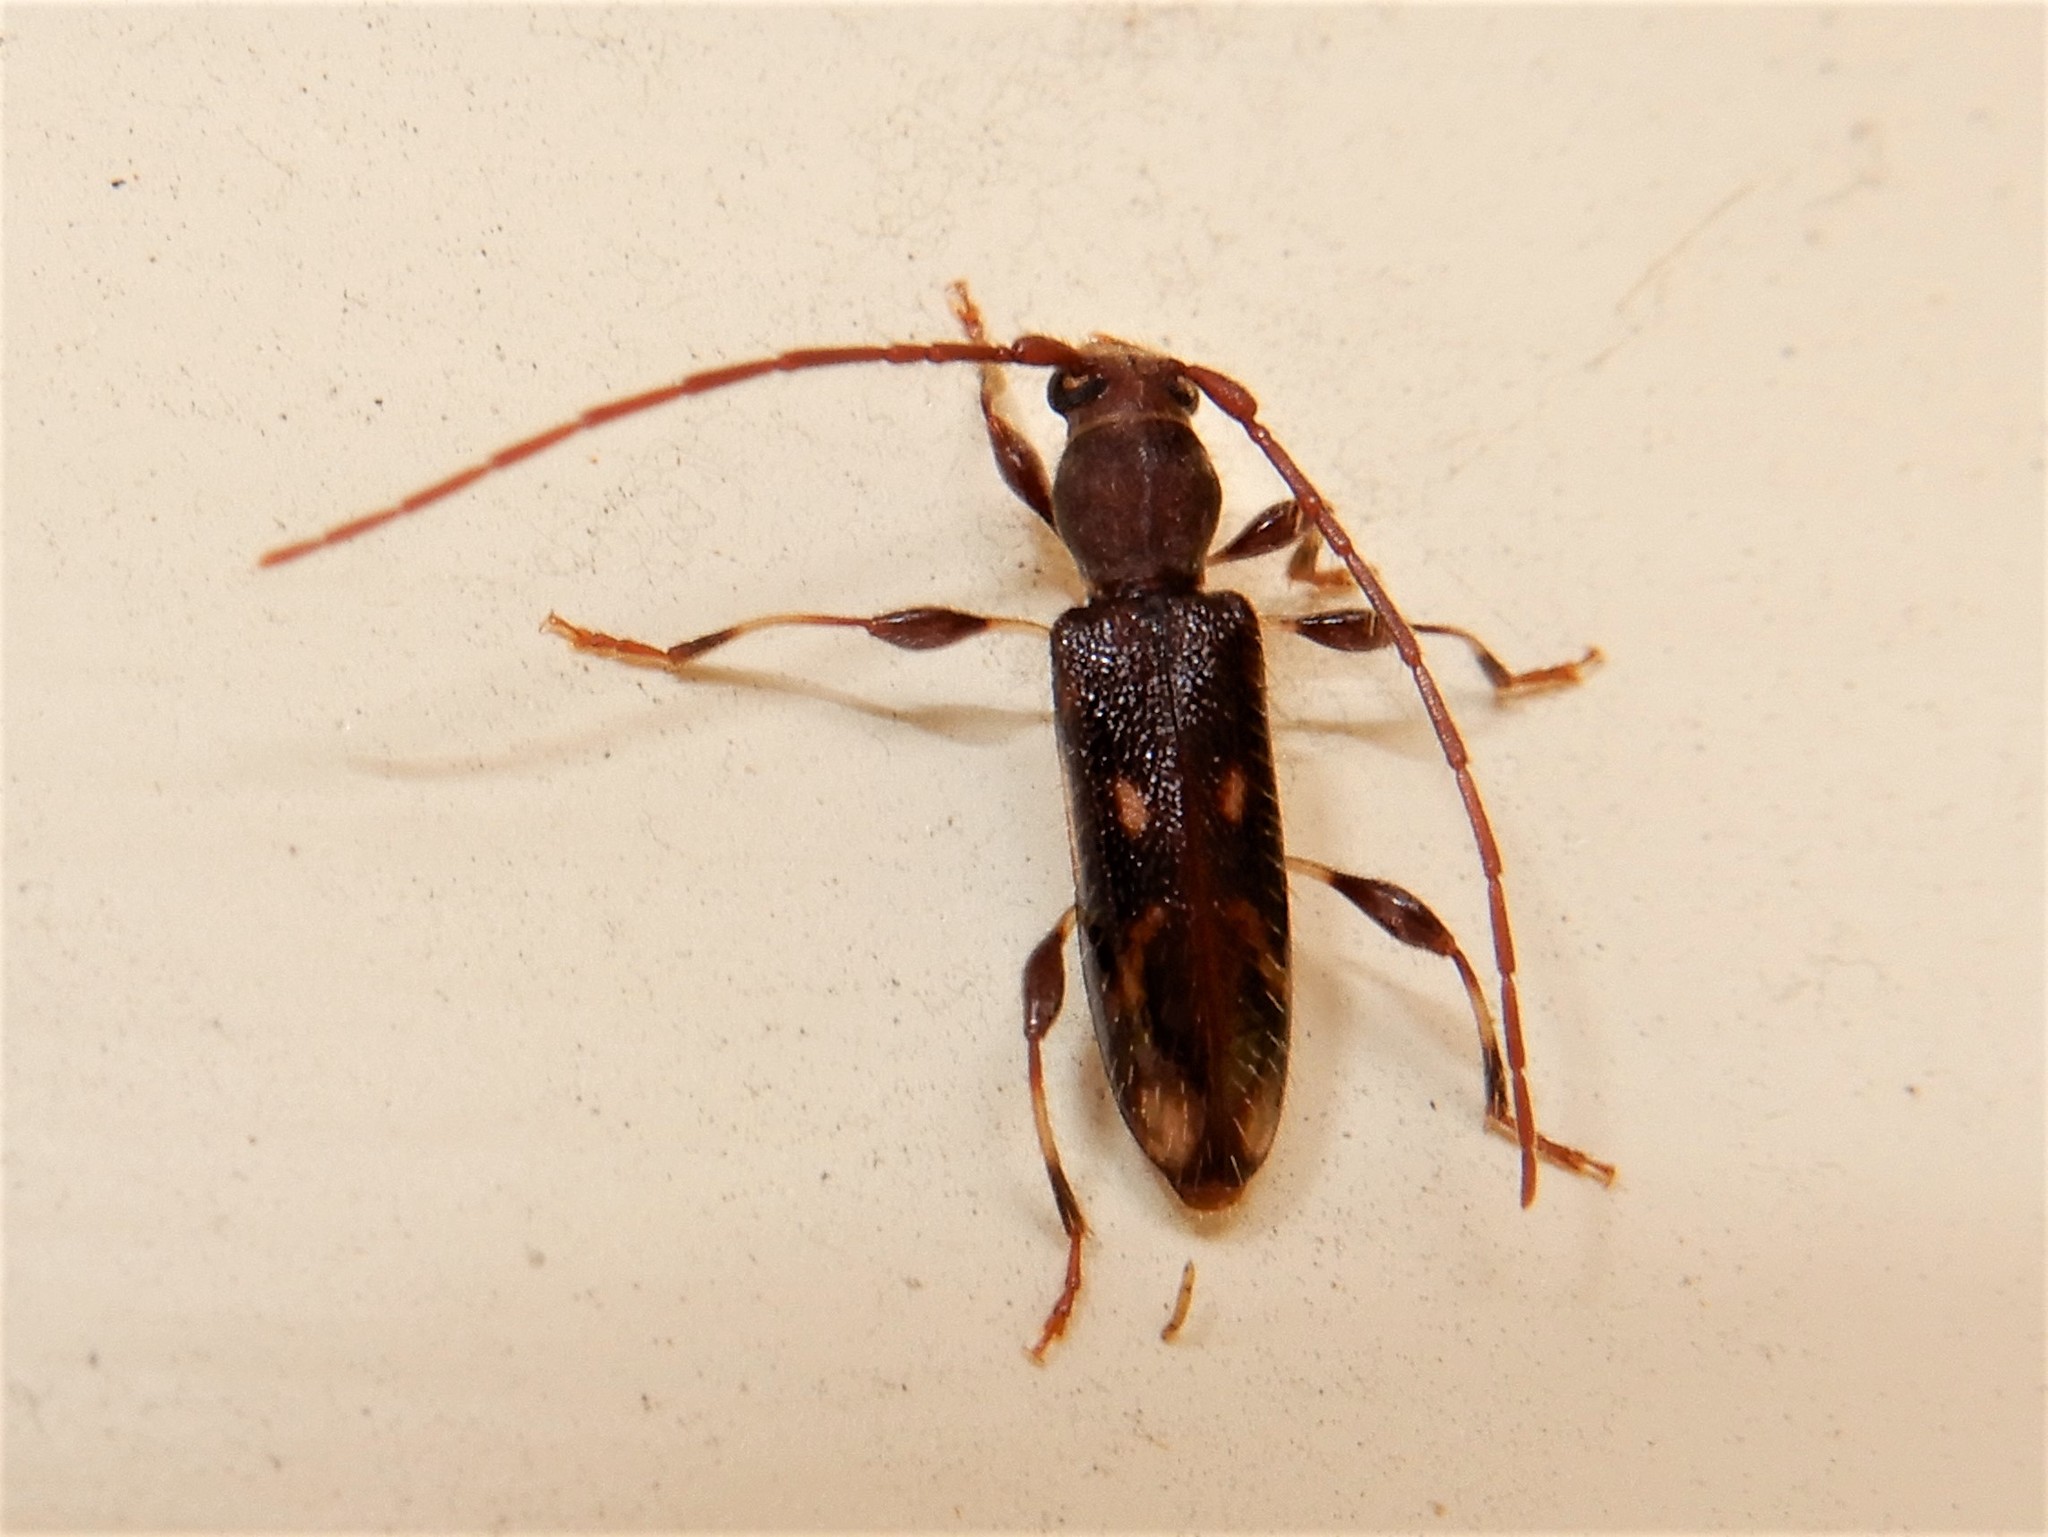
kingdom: Animalia
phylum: Arthropoda
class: Insecta
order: Coleoptera
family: Cerambycidae
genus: Bethelium
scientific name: Bethelium signiferum
